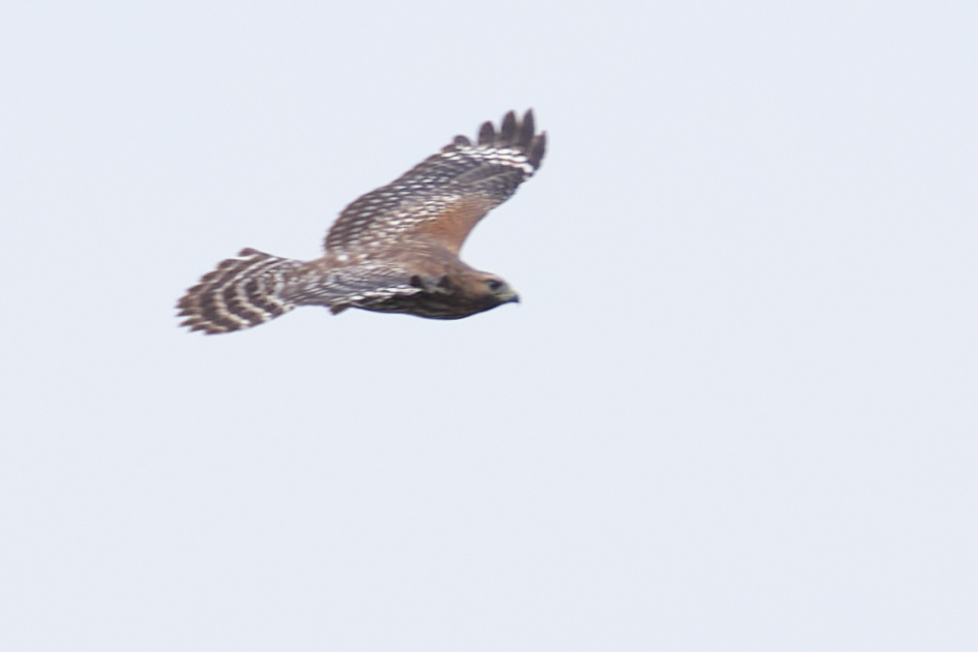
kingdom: Animalia
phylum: Chordata
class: Aves
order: Accipitriformes
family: Accipitridae
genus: Buteo
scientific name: Buteo lineatus
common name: Red-shouldered hawk
